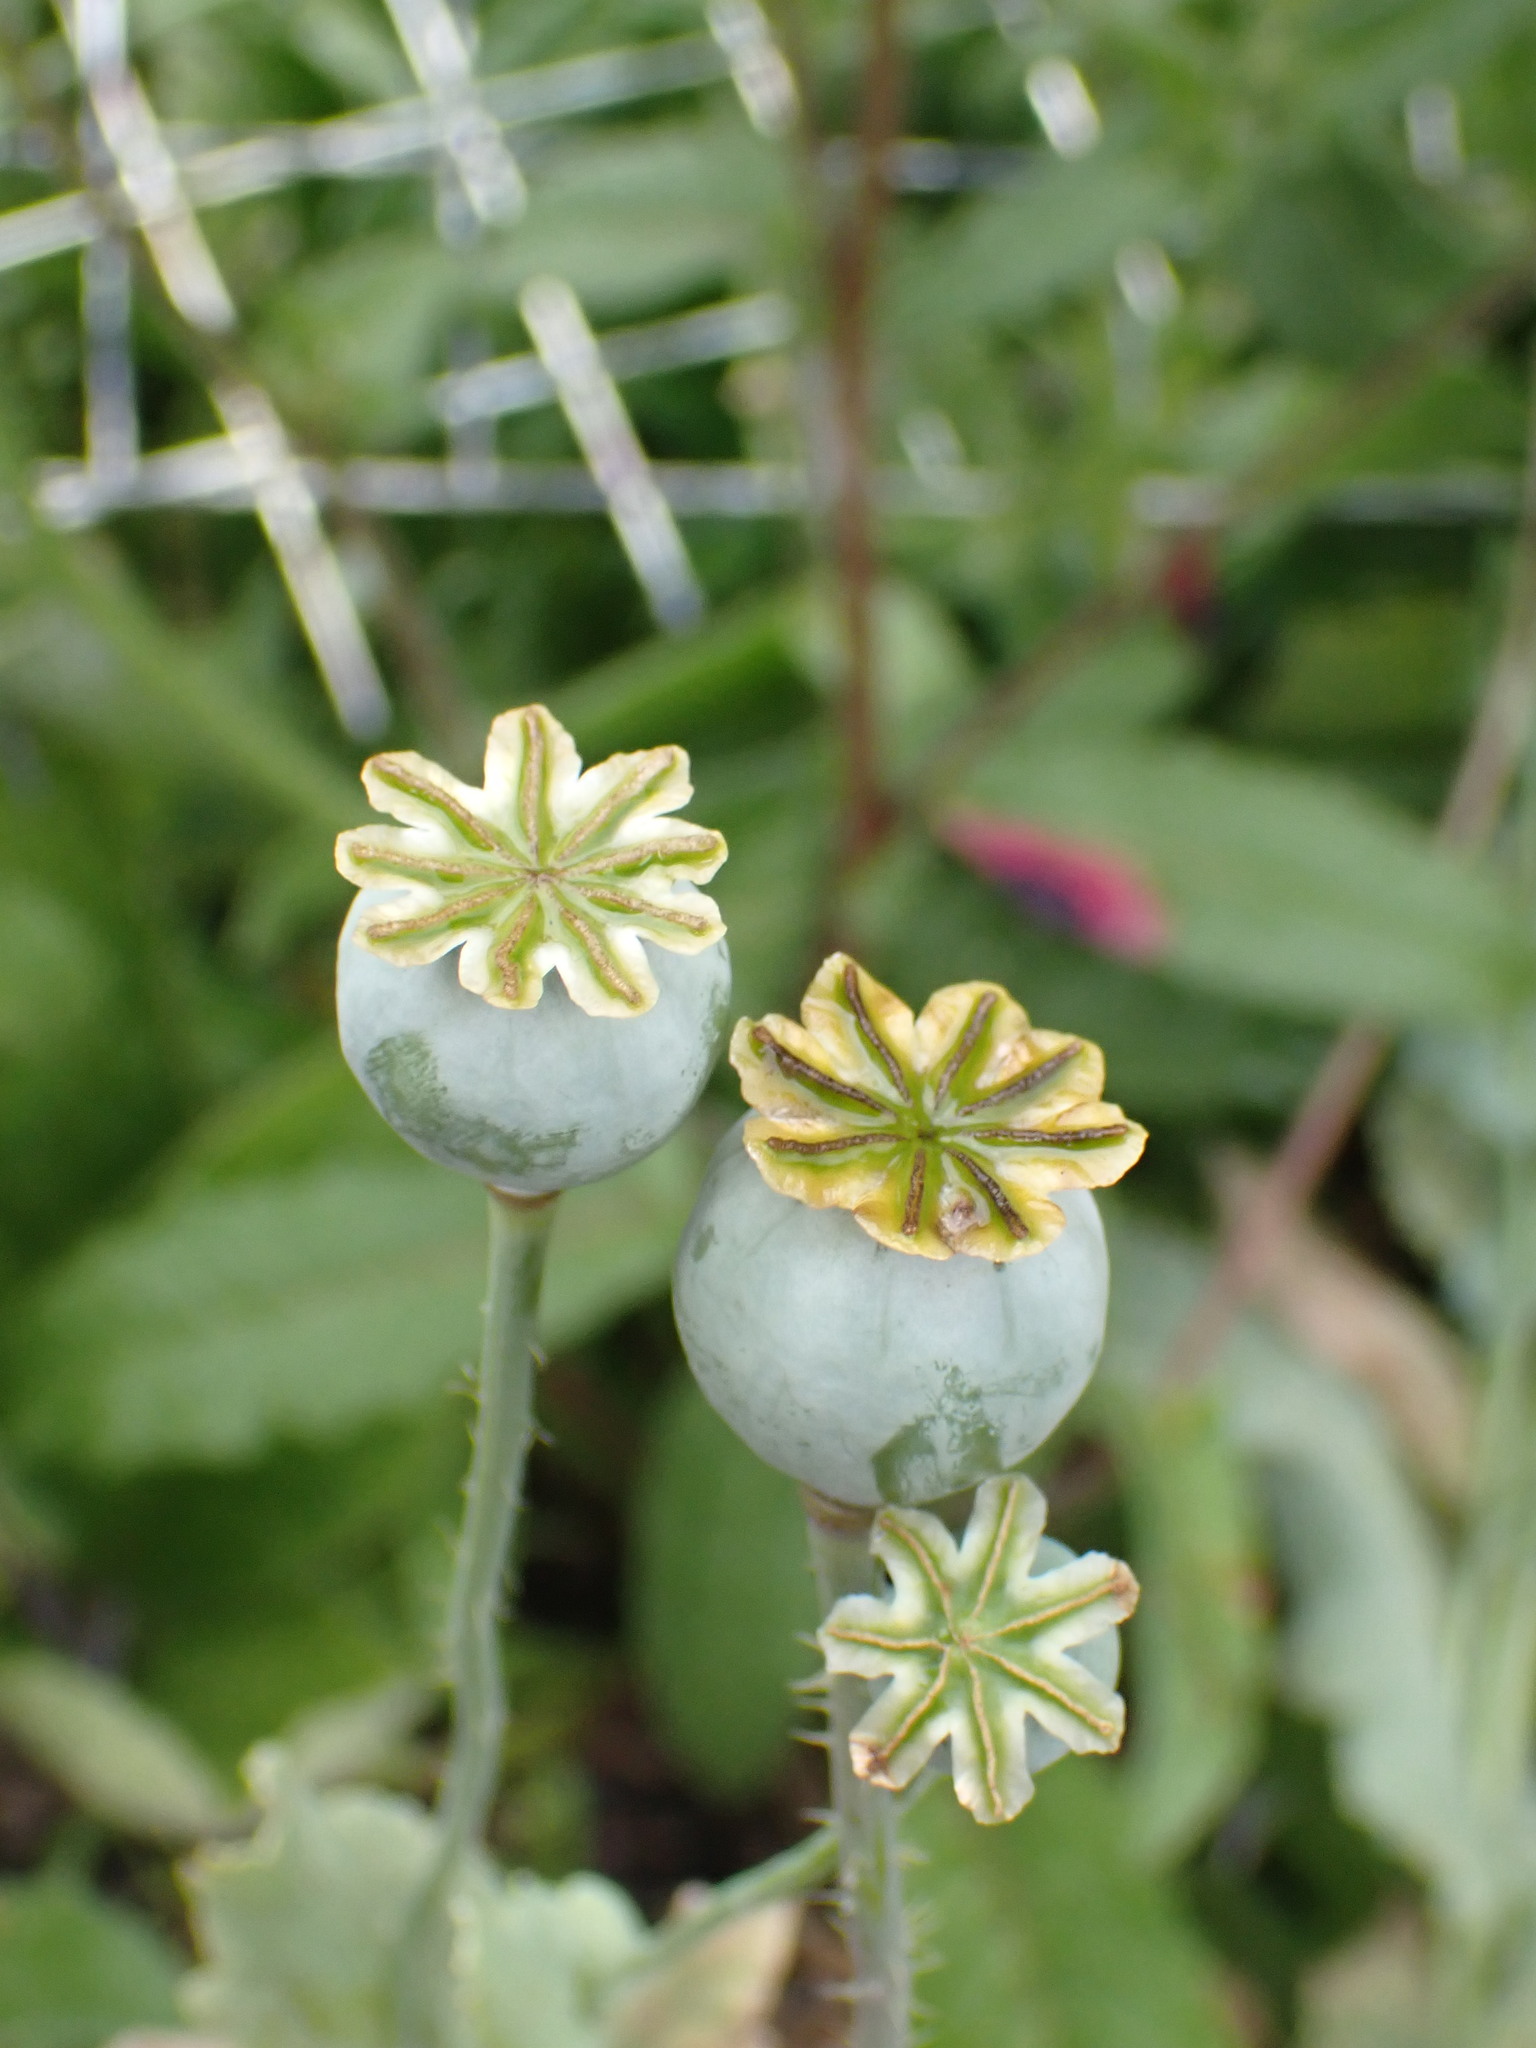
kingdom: Plantae
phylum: Tracheophyta
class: Magnoliopsida
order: Ranunculales
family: Papaveraceae
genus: Papaver
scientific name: Papaver somniferum
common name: Opium poppy
